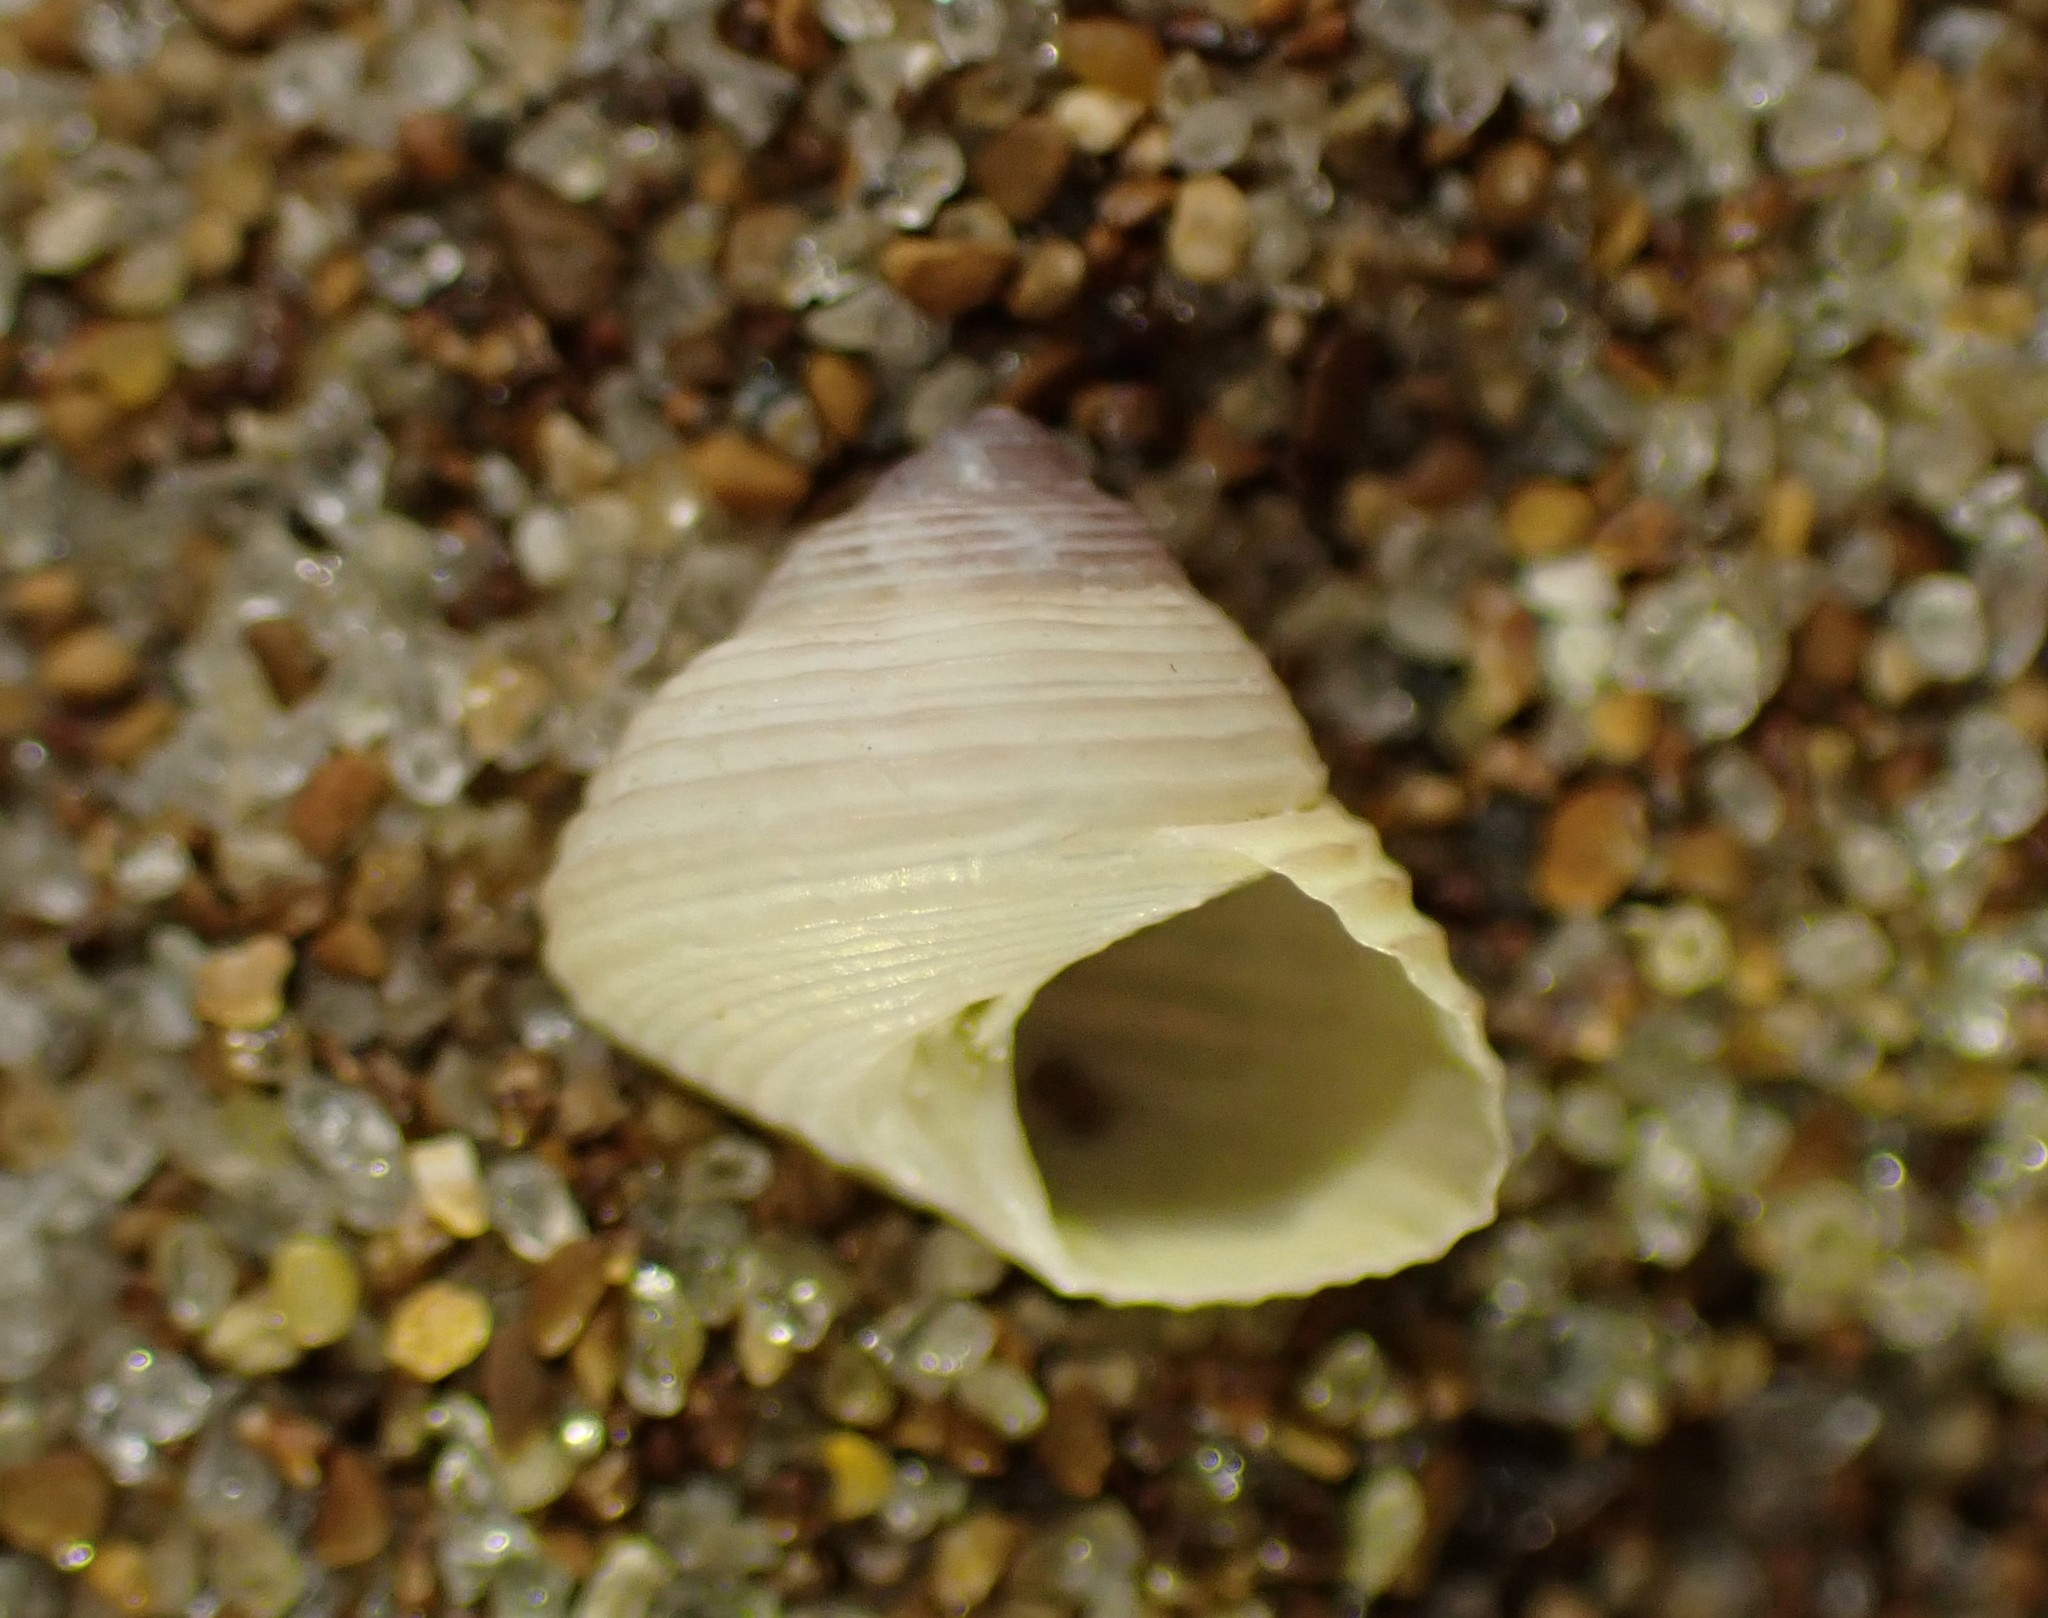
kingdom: Animalia
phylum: Mollusca
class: Gastropoda
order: Trochida
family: Trochidae
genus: Micrelenchus
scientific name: Micrelenchus huttonii
